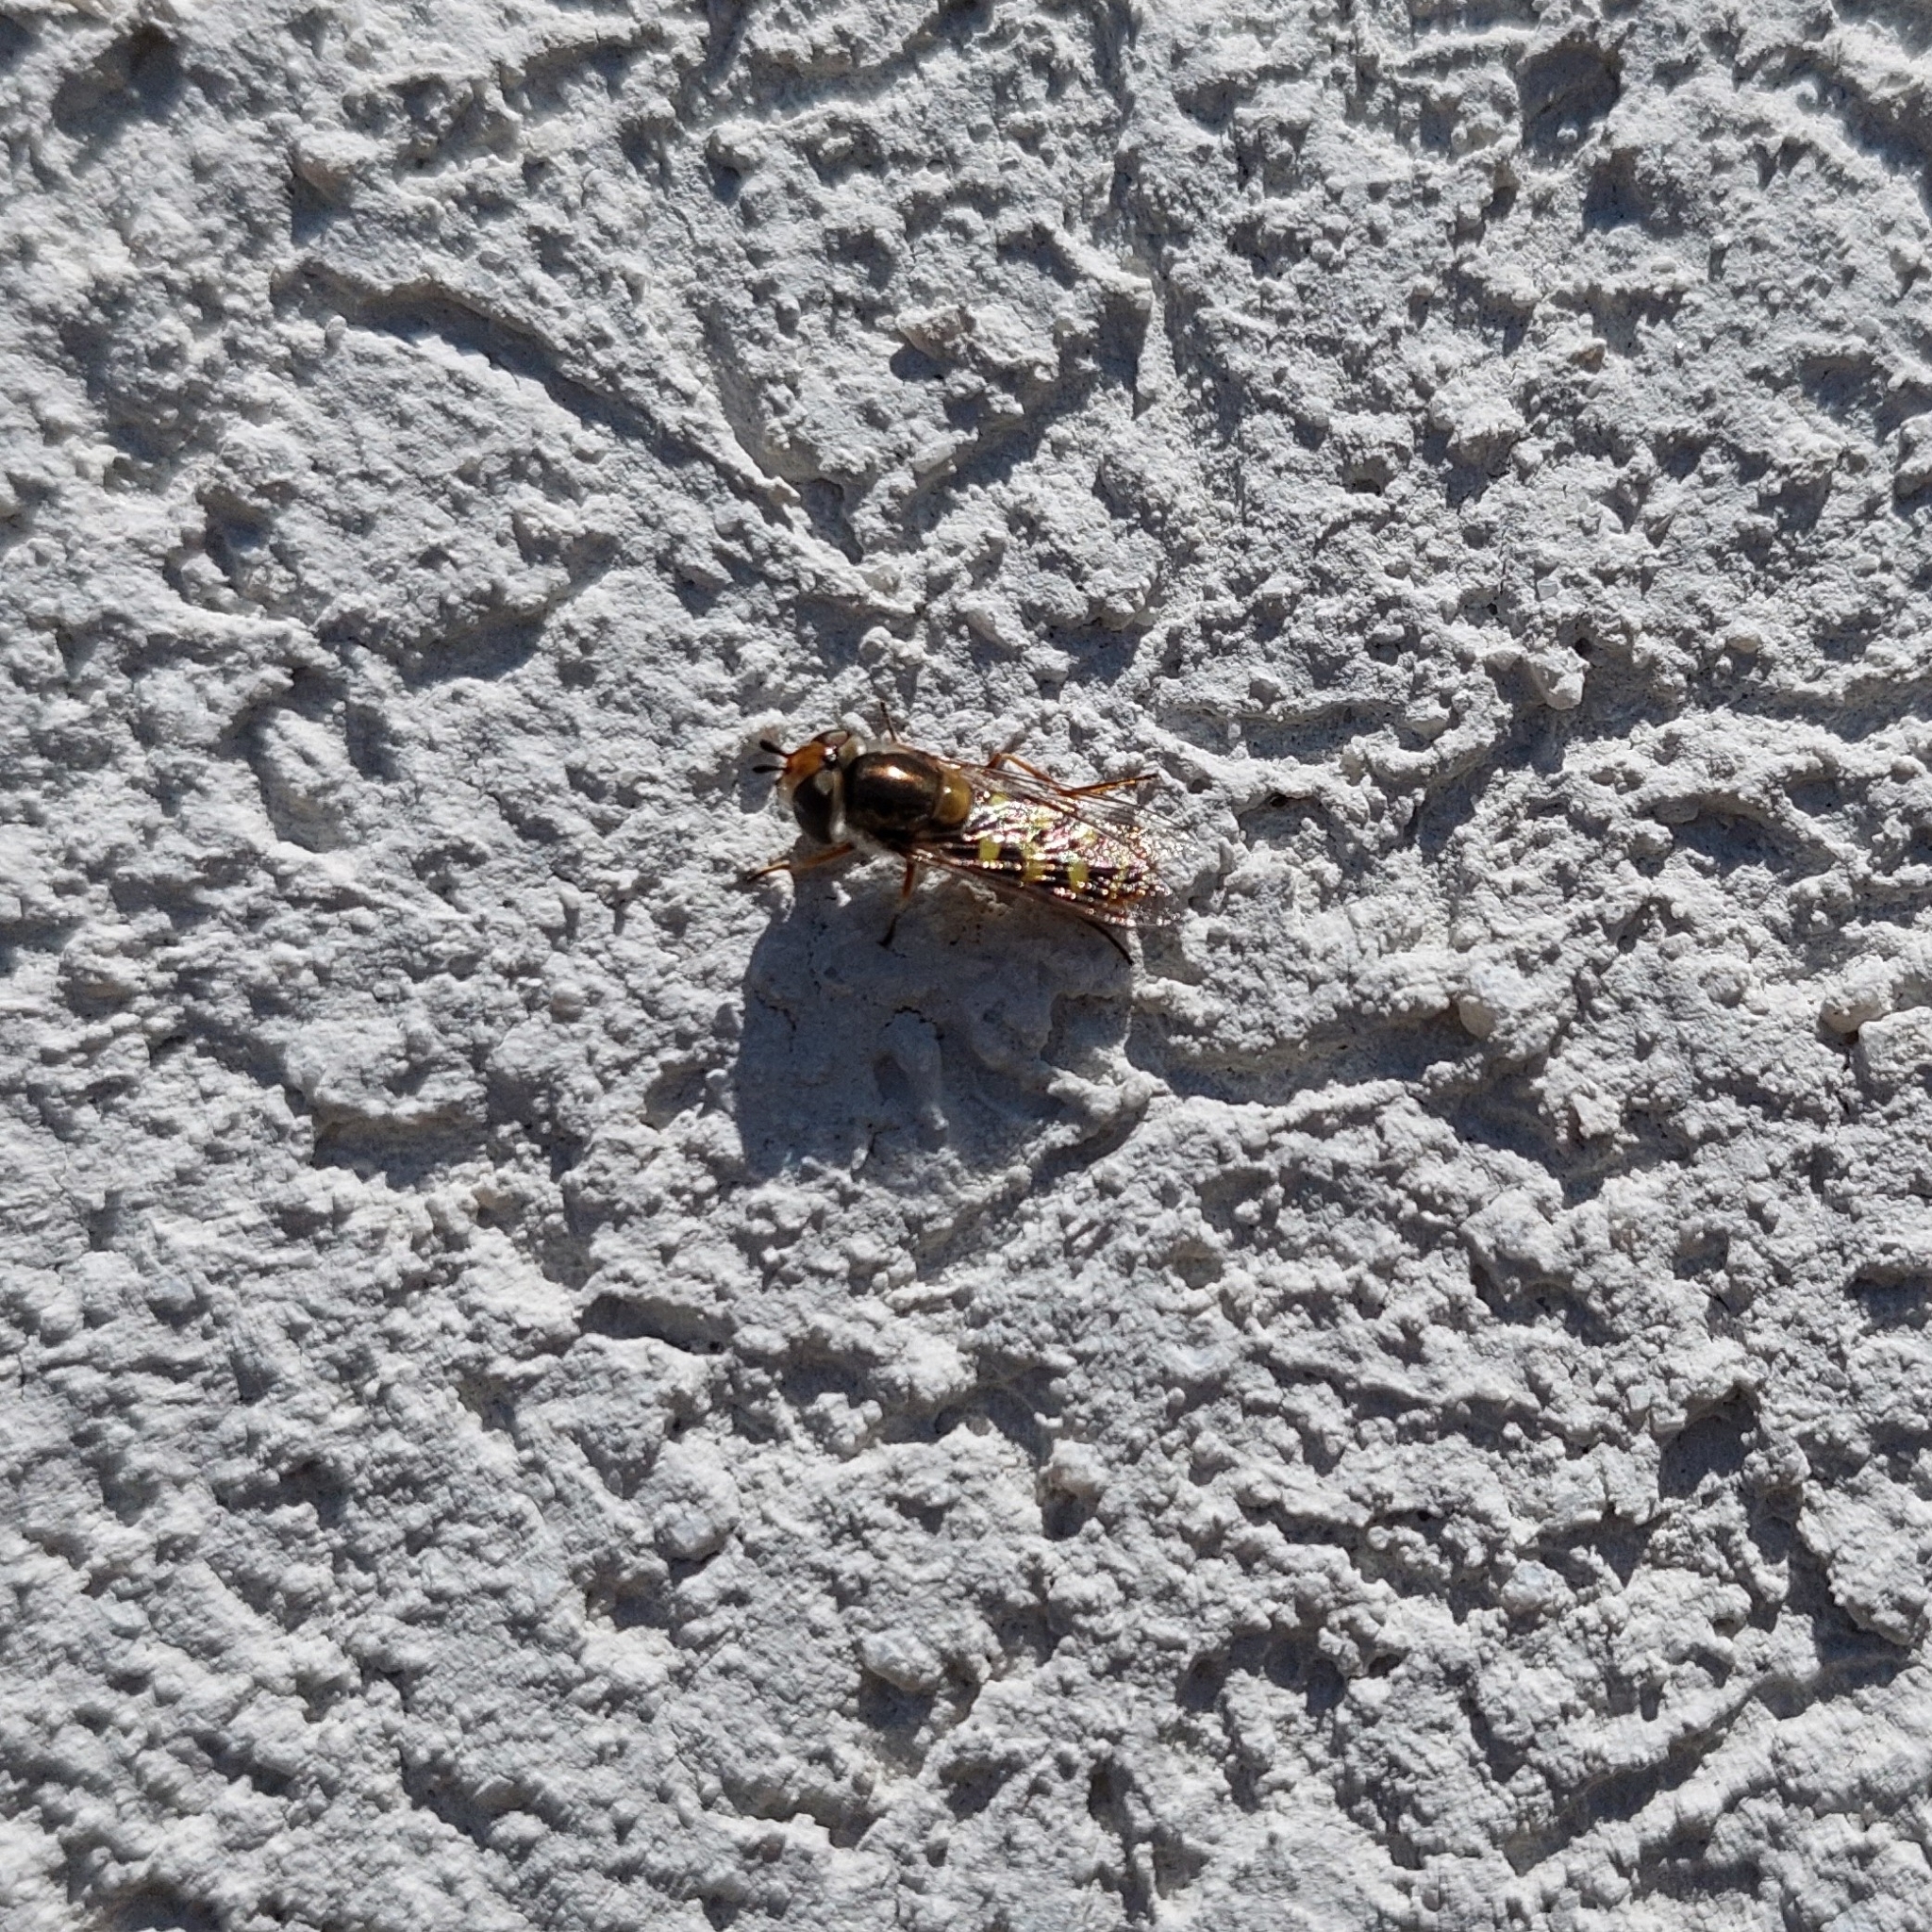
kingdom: Animalia
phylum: Arthropoda
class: Insecta
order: Diptera
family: Syrphidae
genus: Austroscaeva
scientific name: Austroscaeva occidentalis
